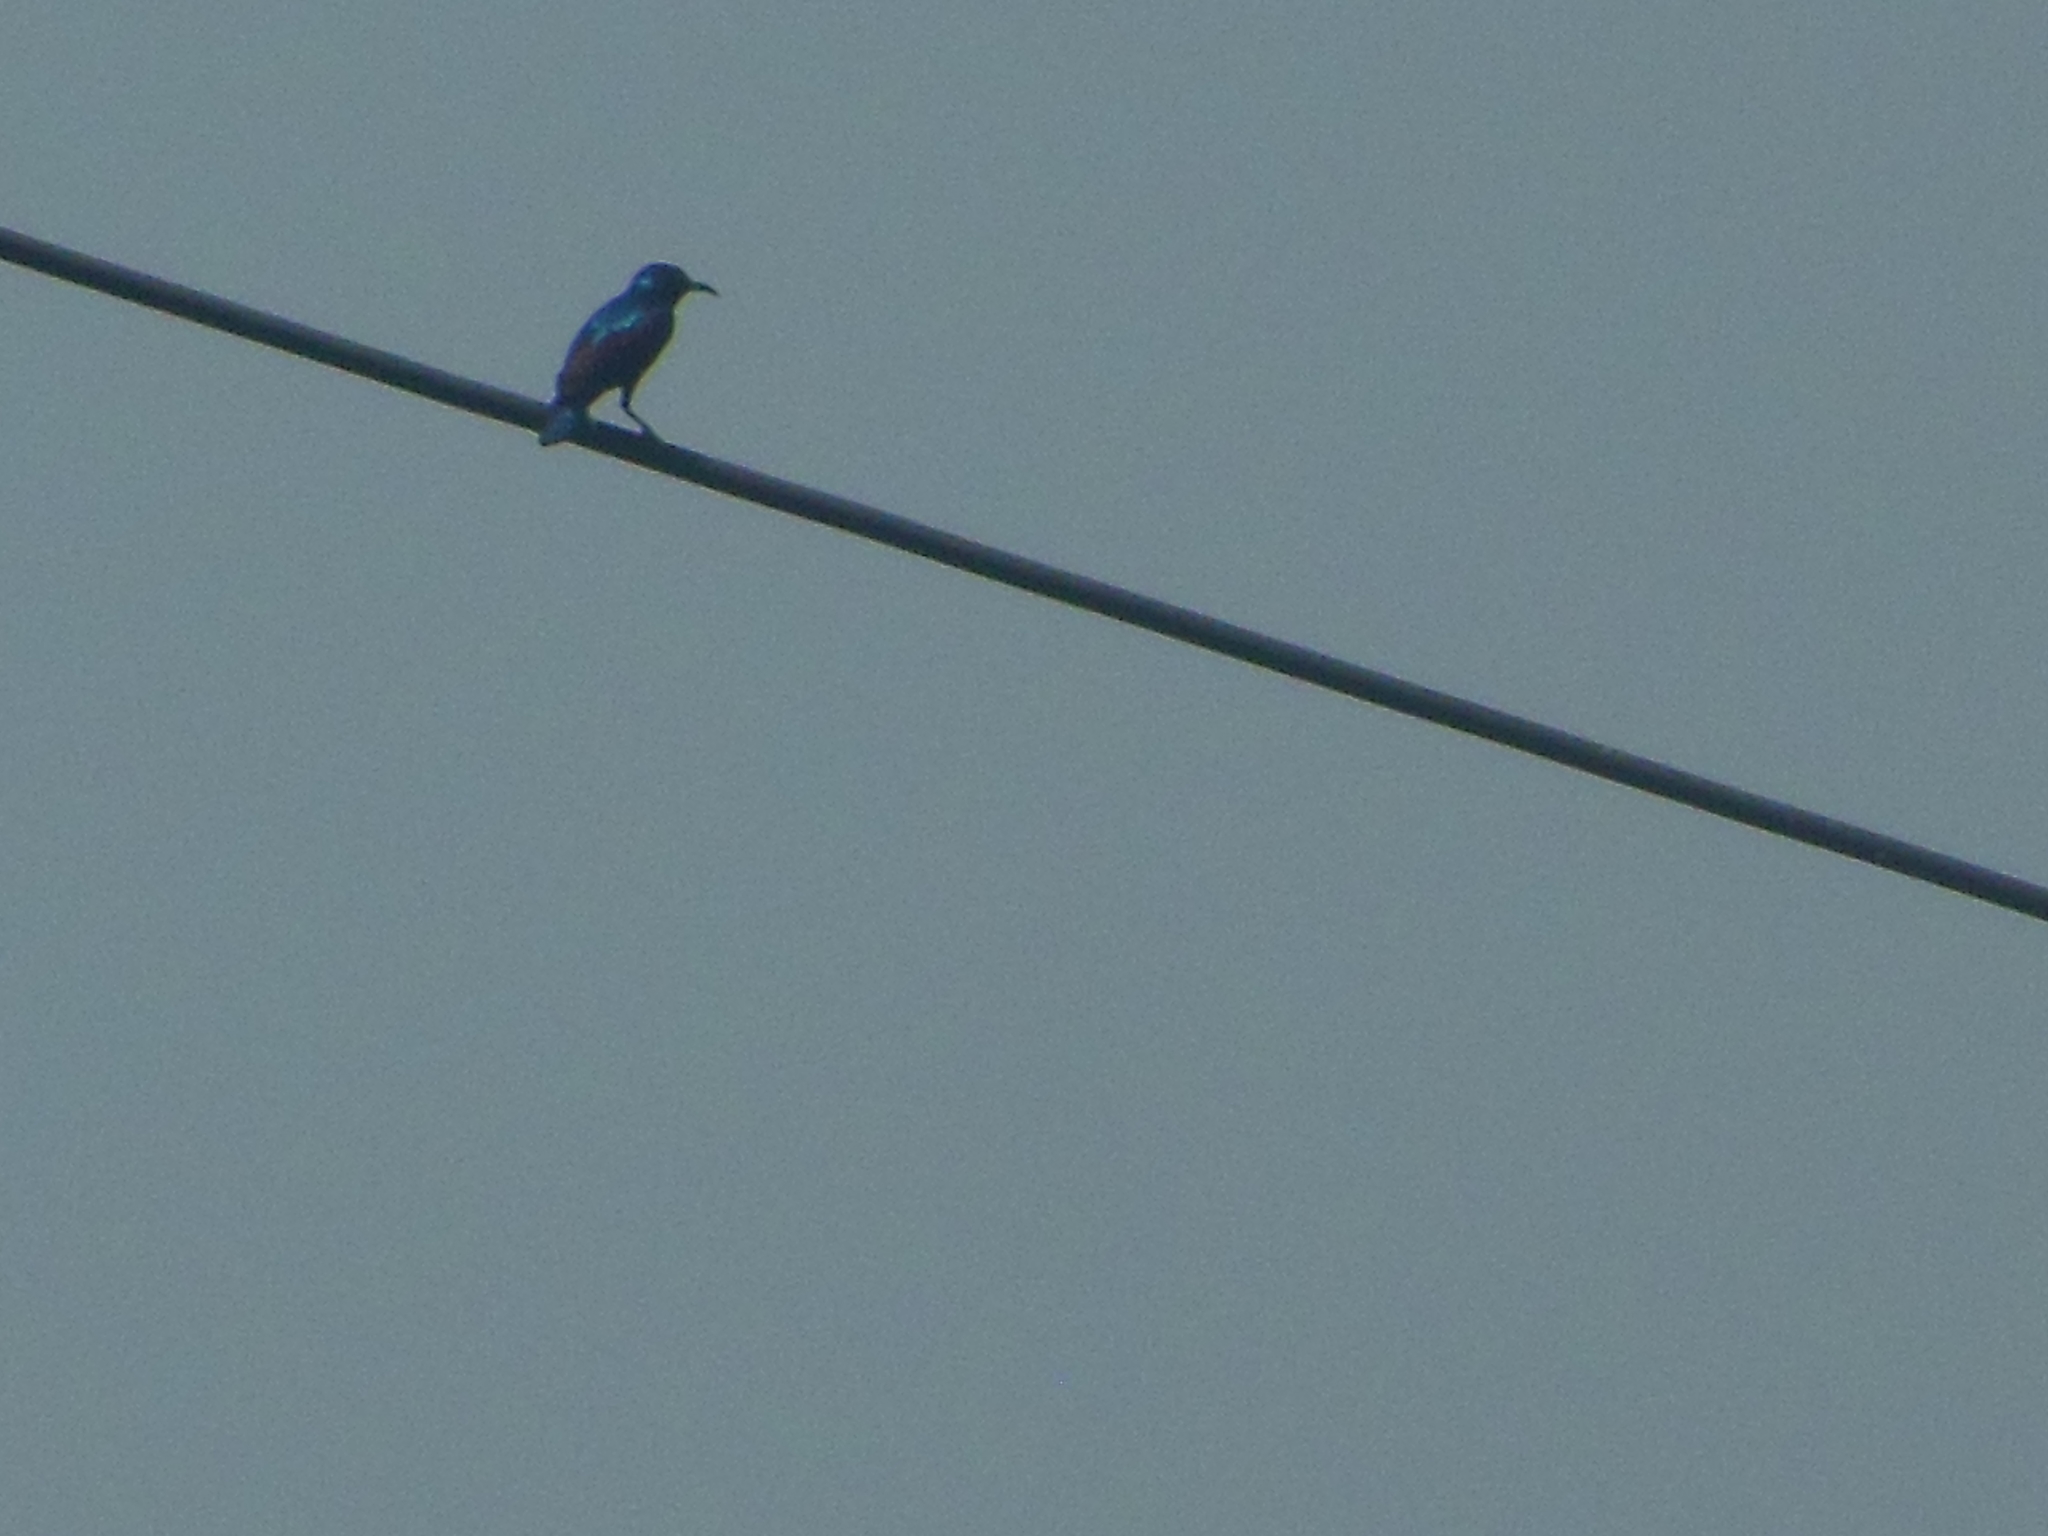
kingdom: Animalia
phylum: Chordata
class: Aves
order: Passeriformes
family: Nectariniidae
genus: Cinnyris
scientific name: Cinnyris asiaticus
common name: Purple sunbird
